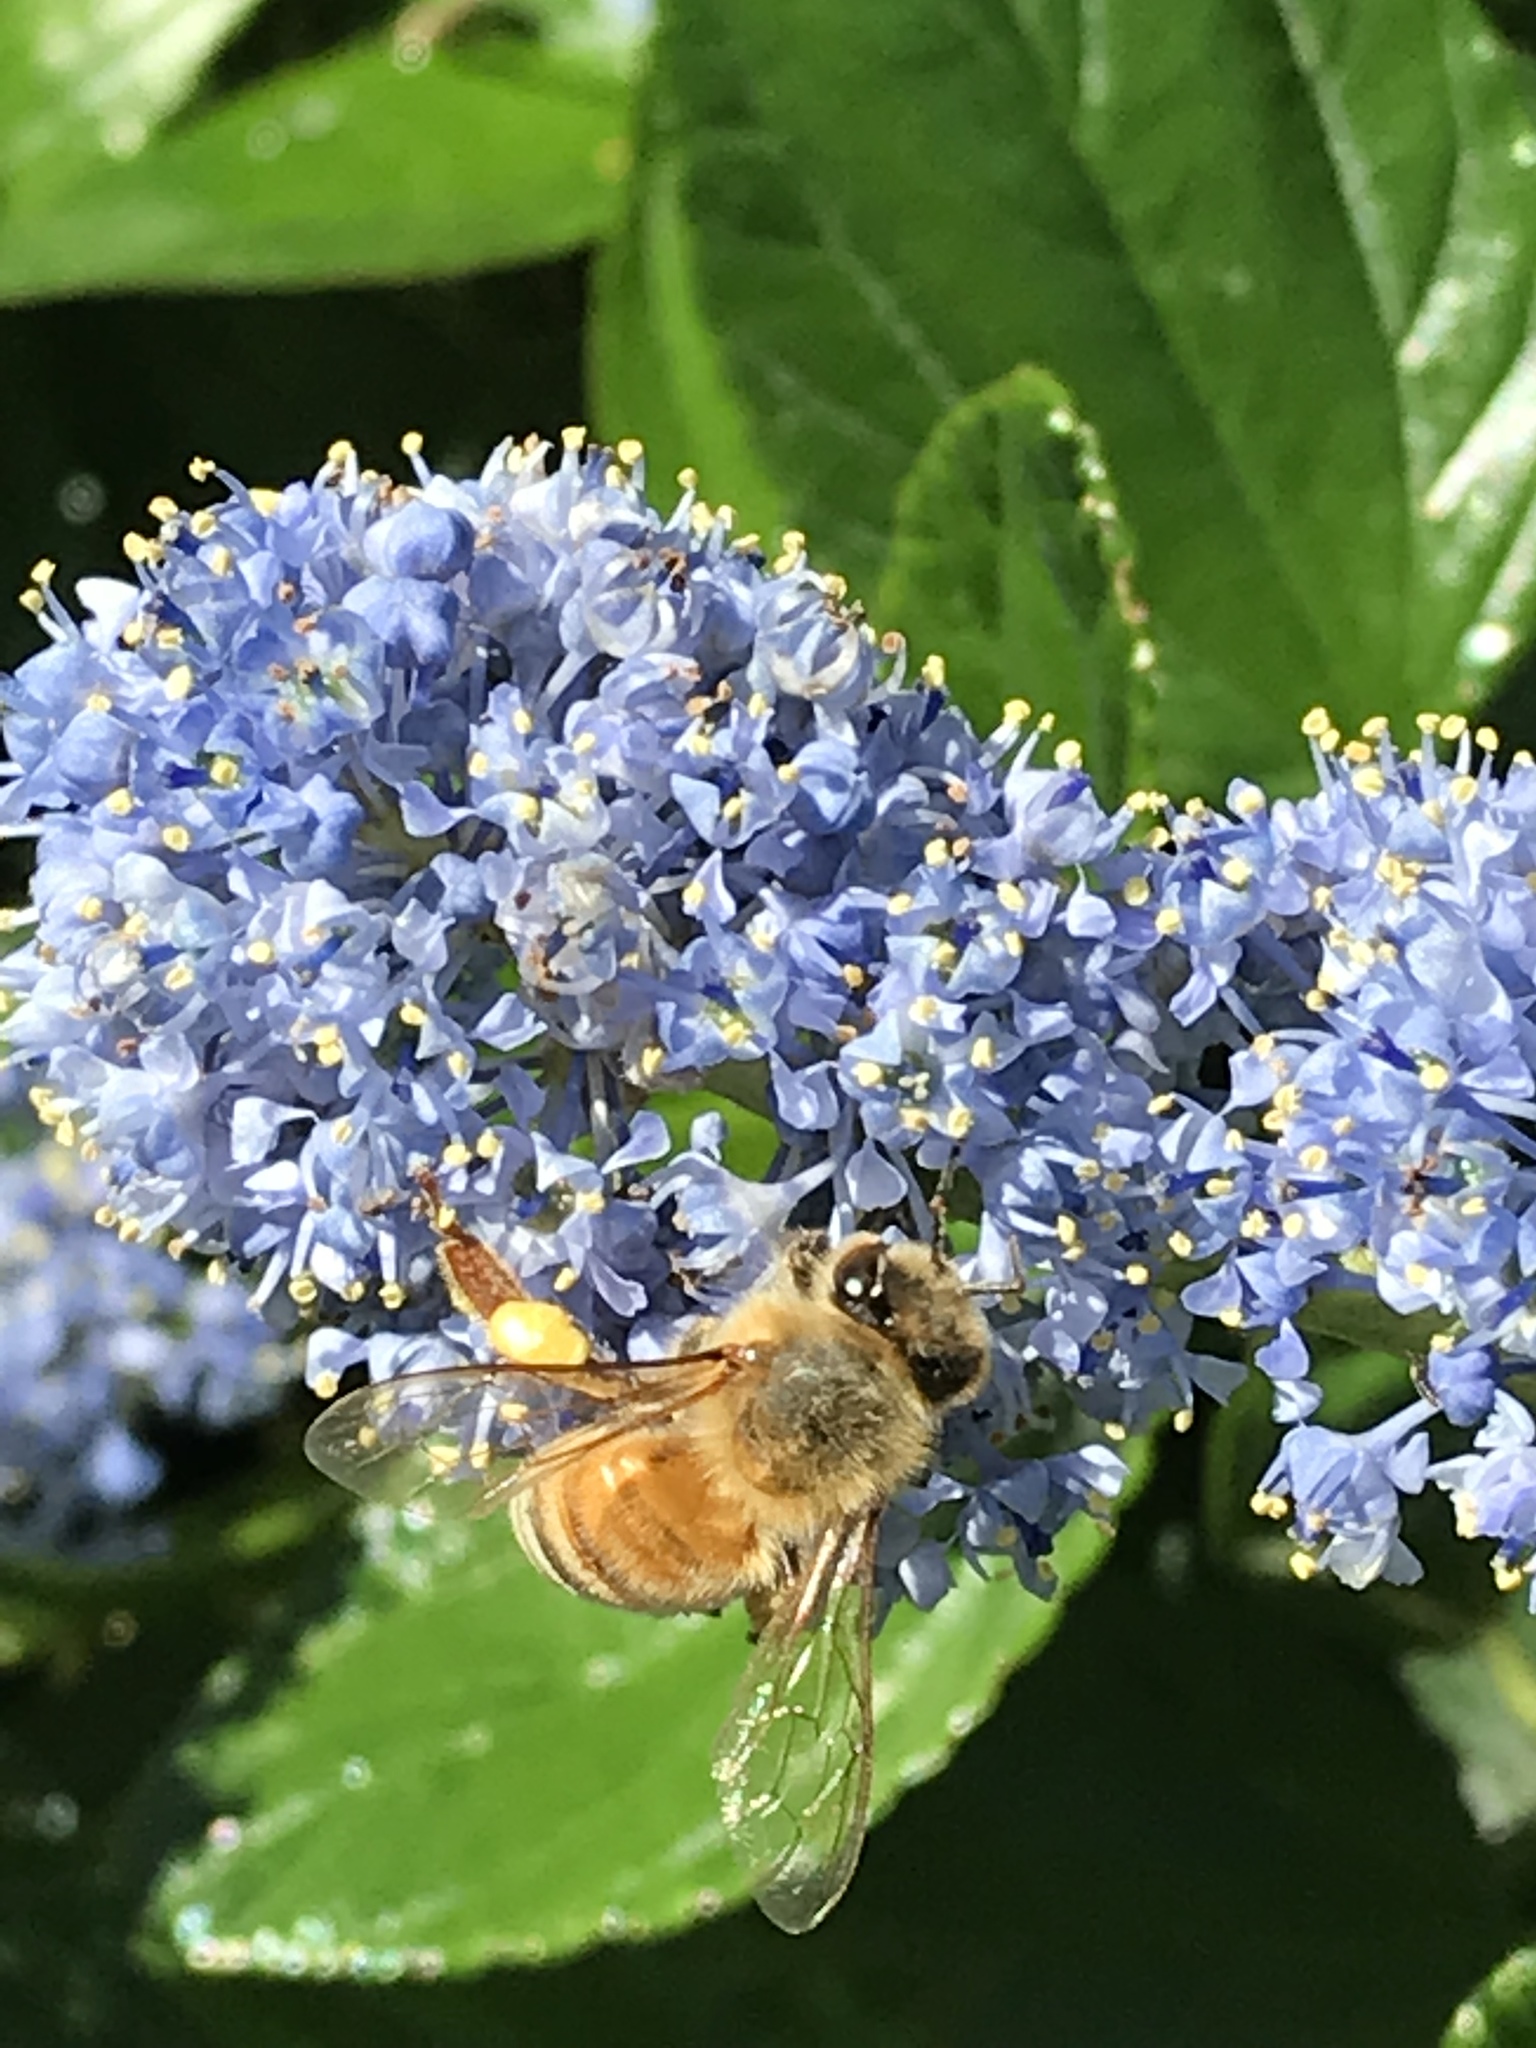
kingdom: Animalia
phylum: Arthropoda
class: Insecta
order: Hymenoptera
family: Apidae
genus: Apis
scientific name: Apis mellifera
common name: Honey bee
